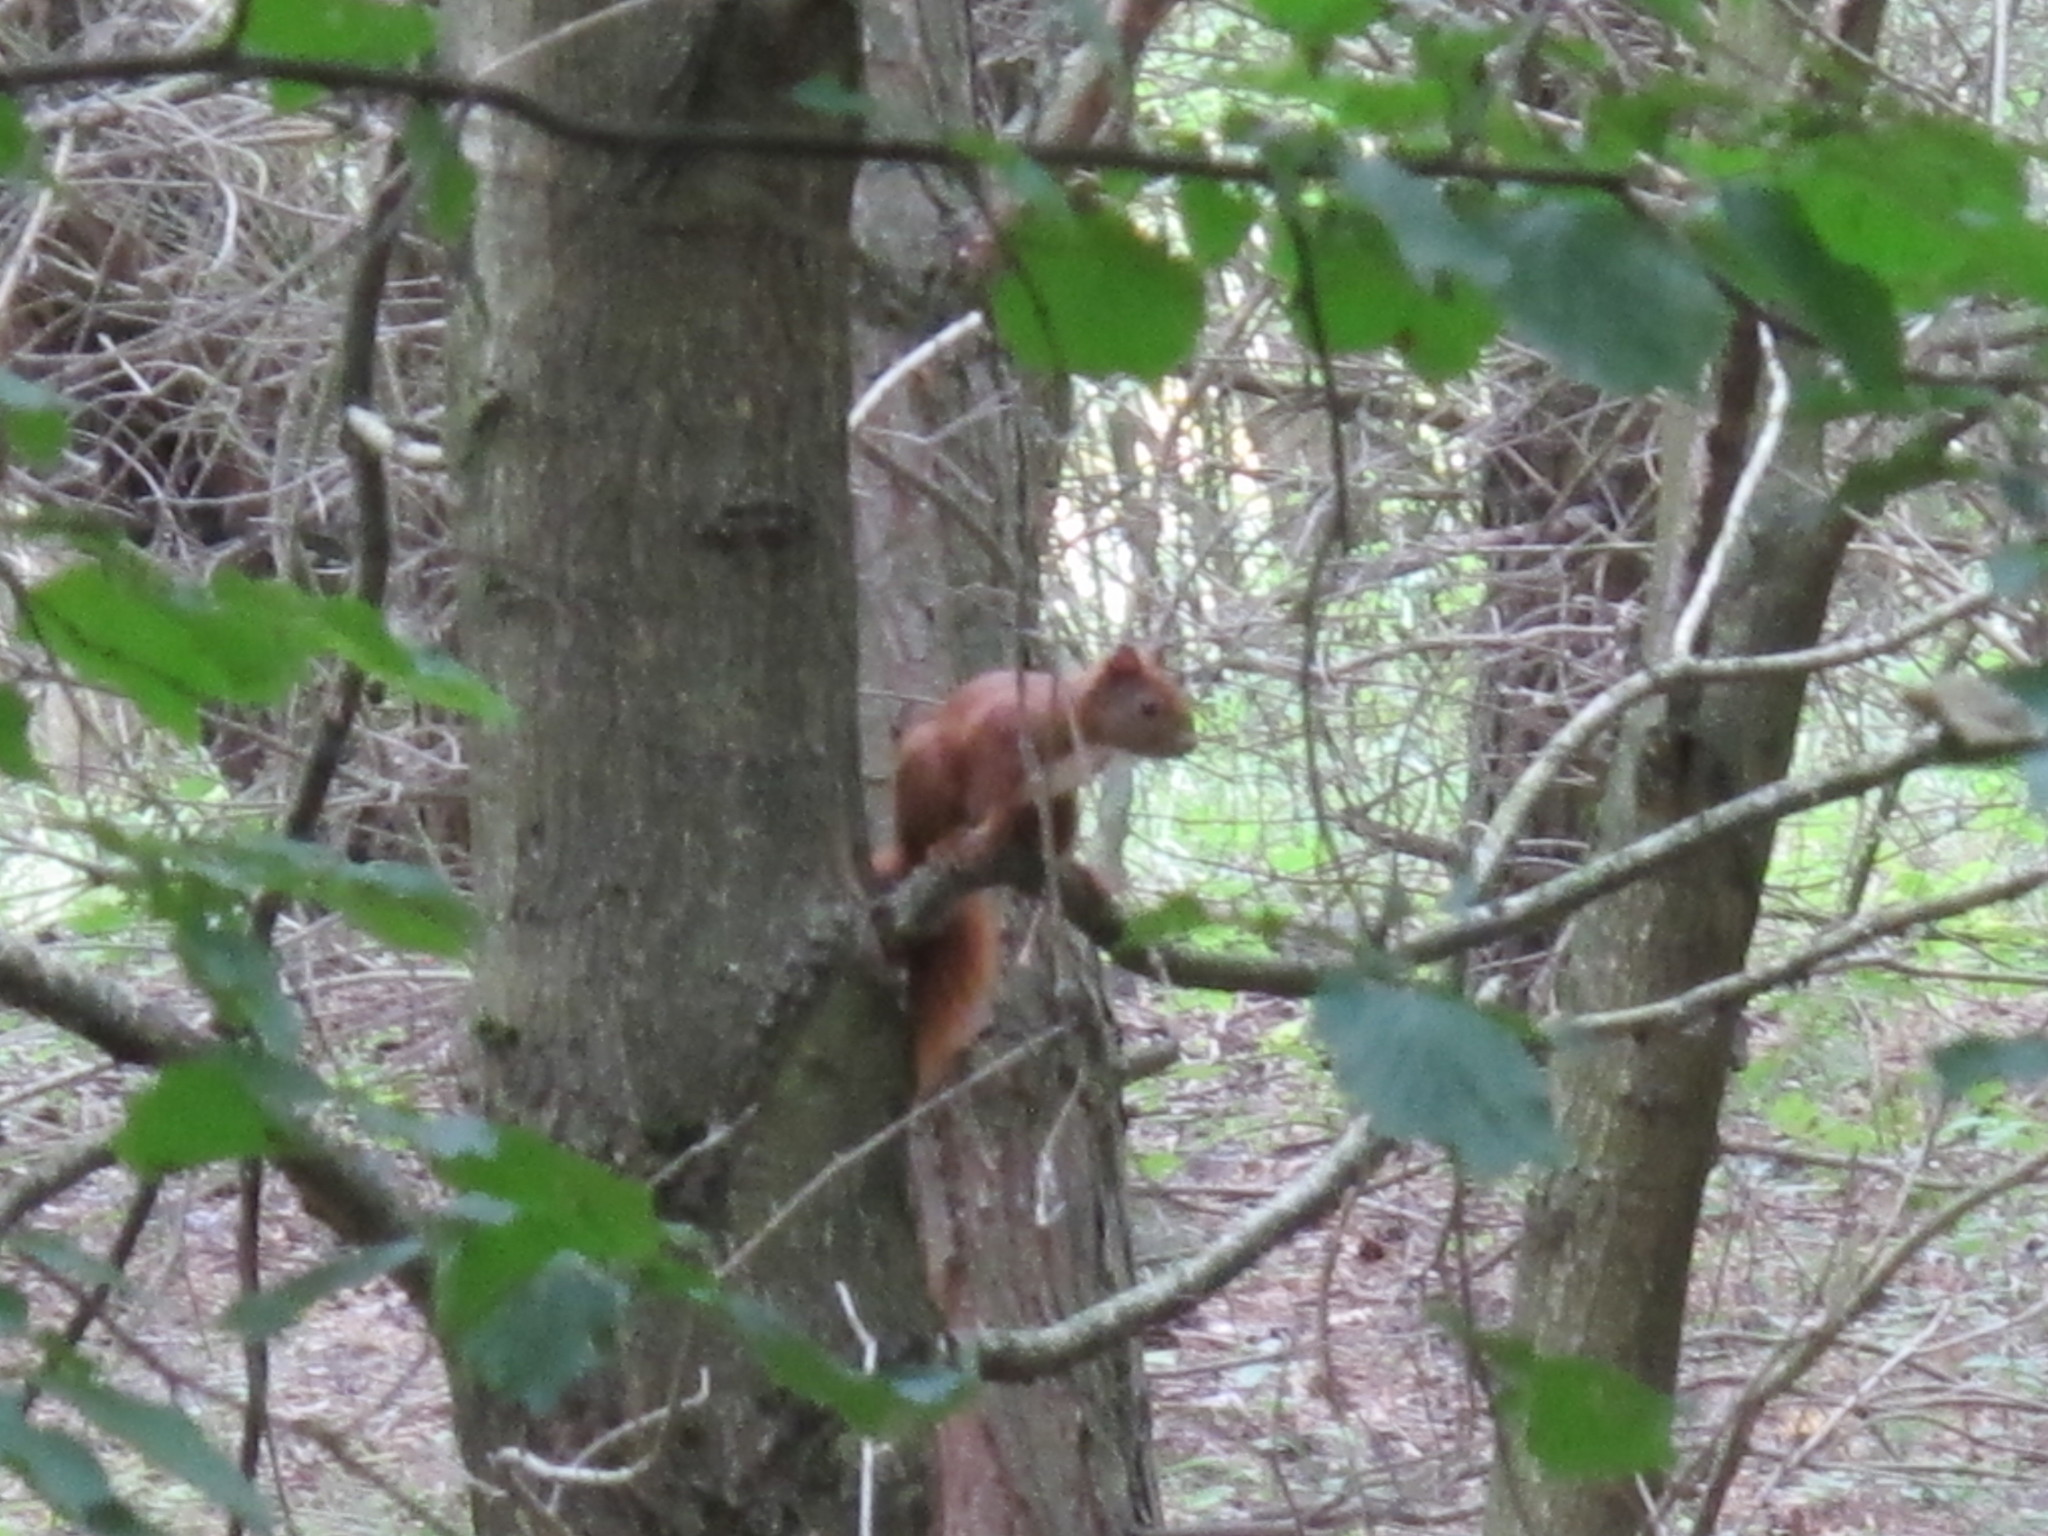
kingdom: Animalia
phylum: Chordata
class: Mammalia
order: Rodentia
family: Sciuridae
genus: Sciurus
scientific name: Sciurus vulgaris
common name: Eurasian red squirrel
